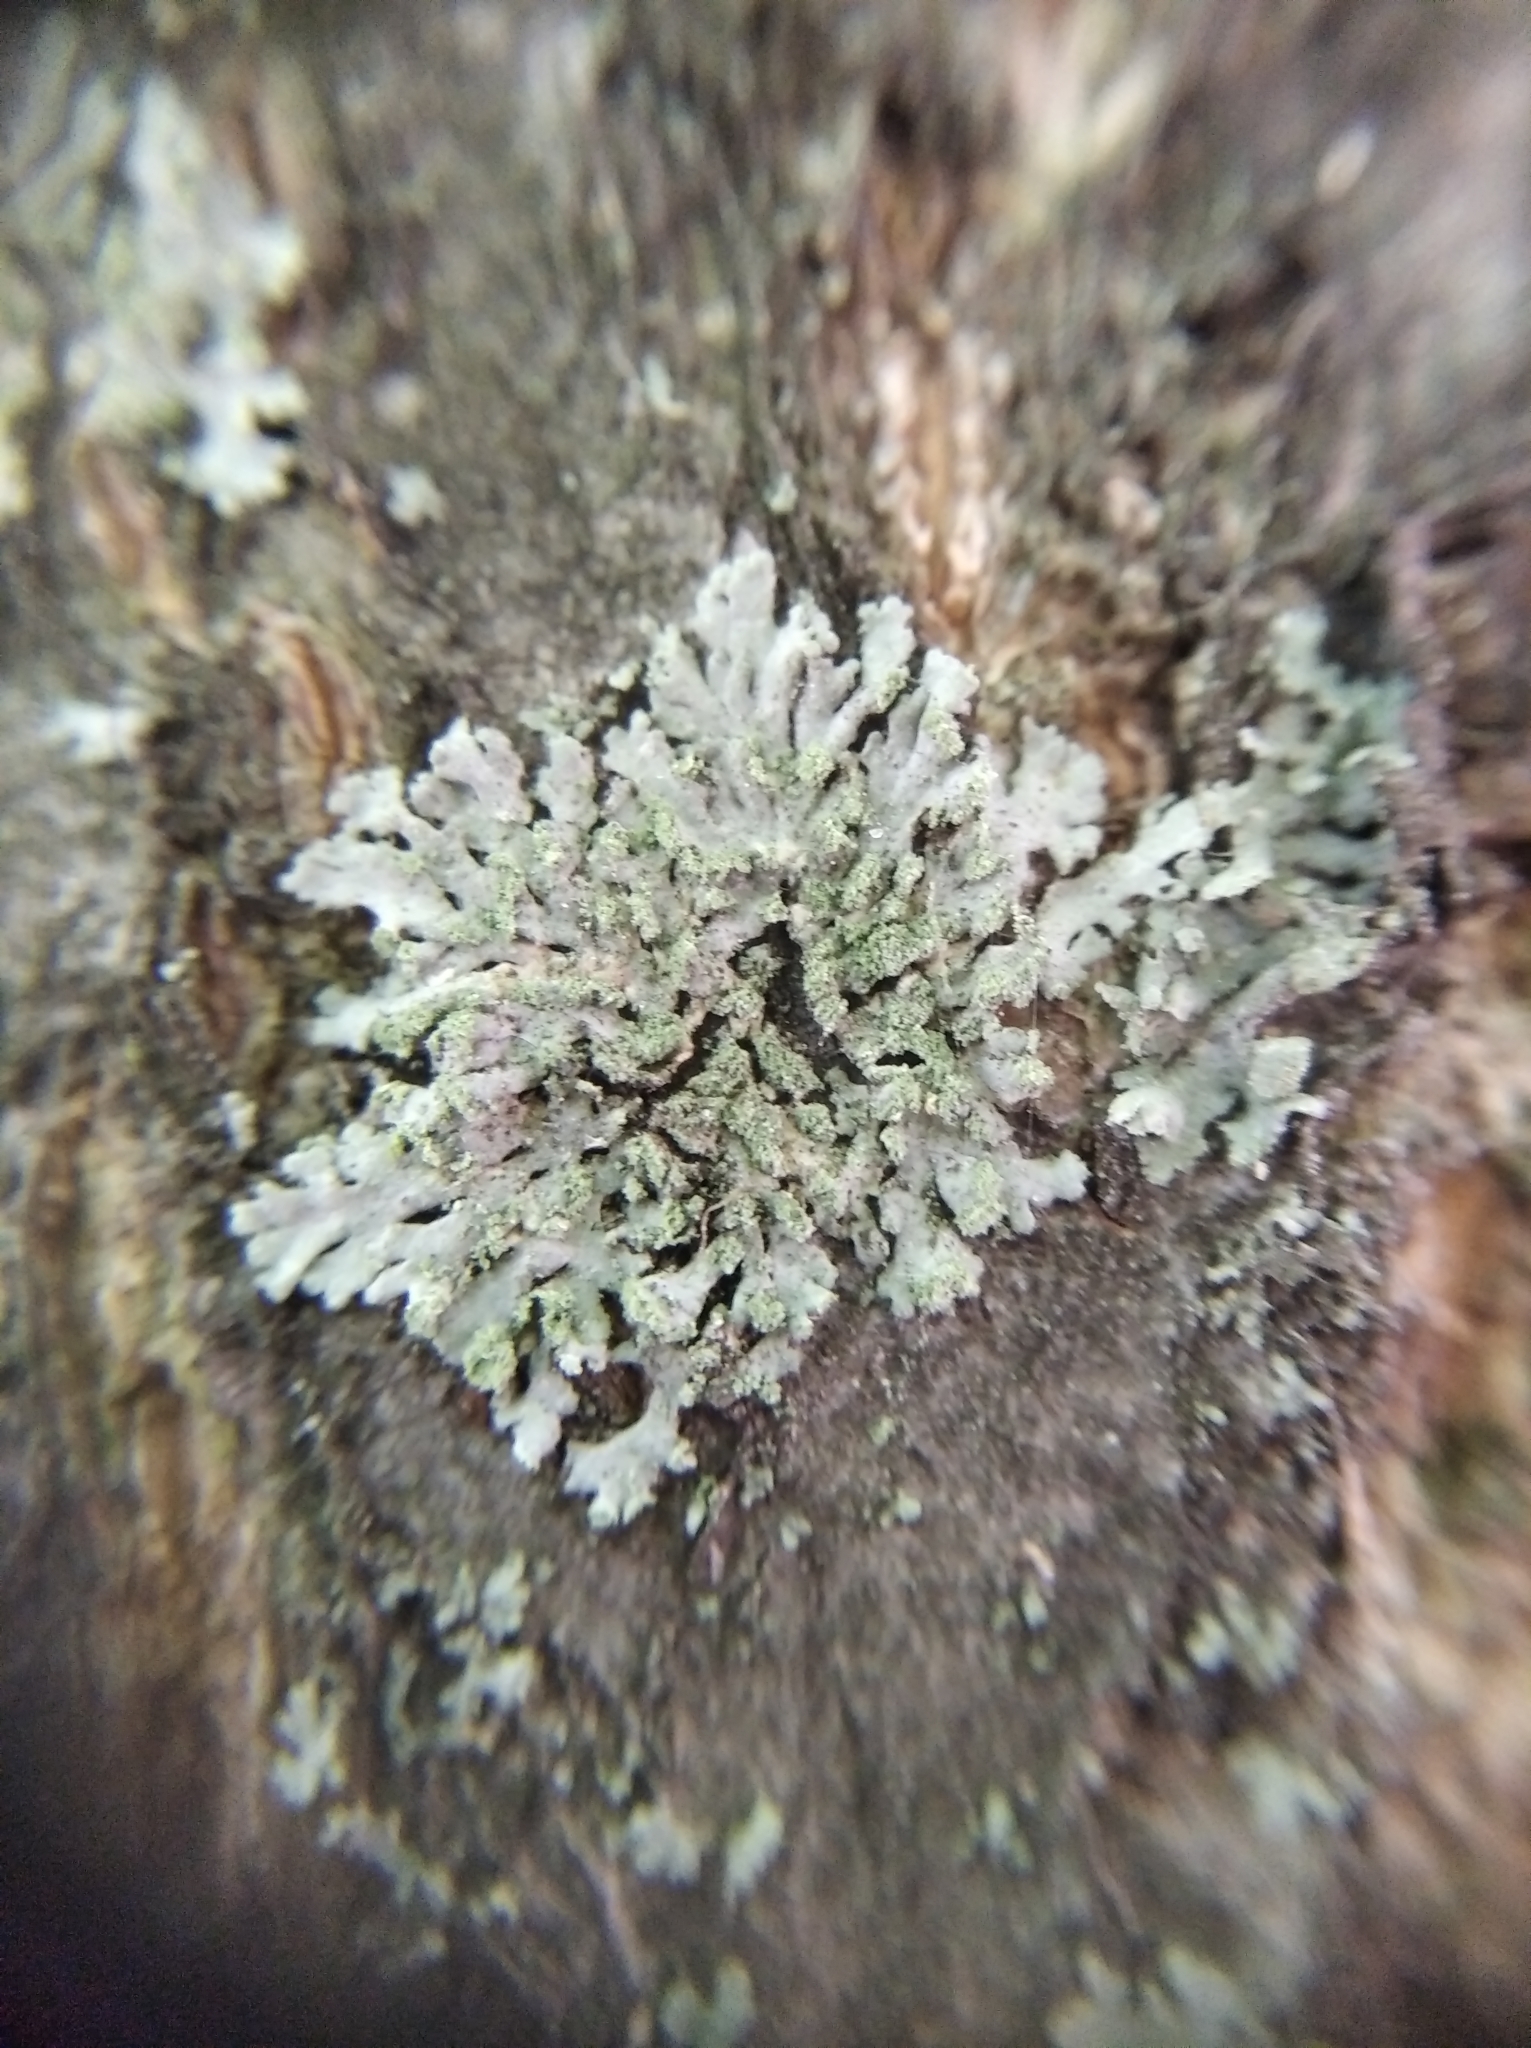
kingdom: Fungi
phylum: Ascomycota
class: Lecanoromycetes
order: Caliciales
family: Physciaceae
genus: Phaeophyscia
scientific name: Phaeophyscia orbicularis
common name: Mealy shadow lichen
